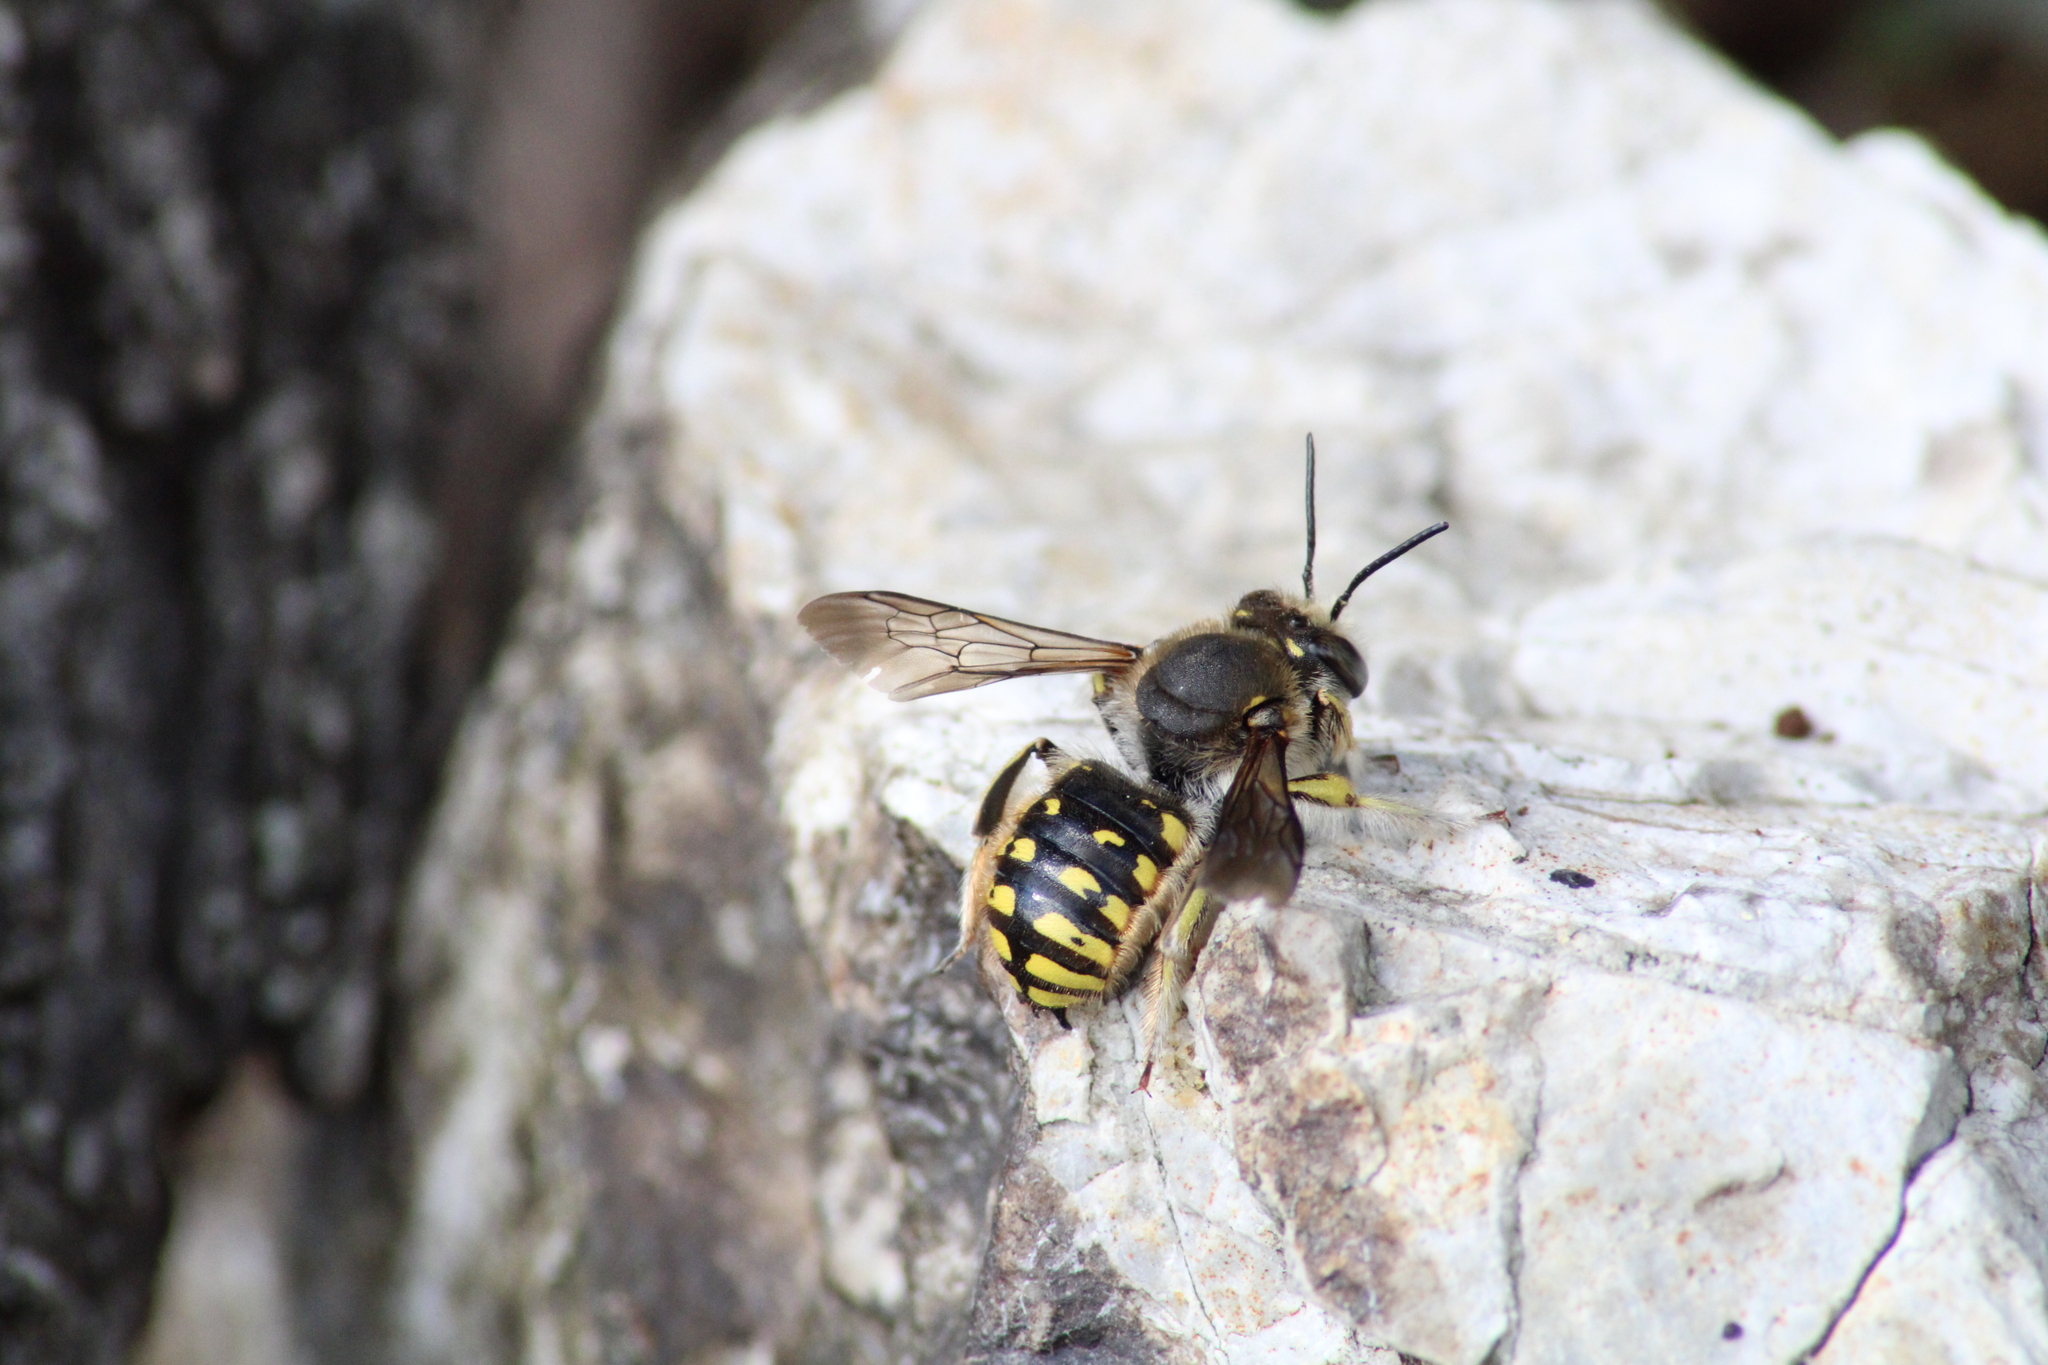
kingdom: Animalia
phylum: Arthropoda
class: Insecta
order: Hymenoptera
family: Megachilidae
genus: Anthidium
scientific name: Anthidium manicatum
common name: Wool carder bee
